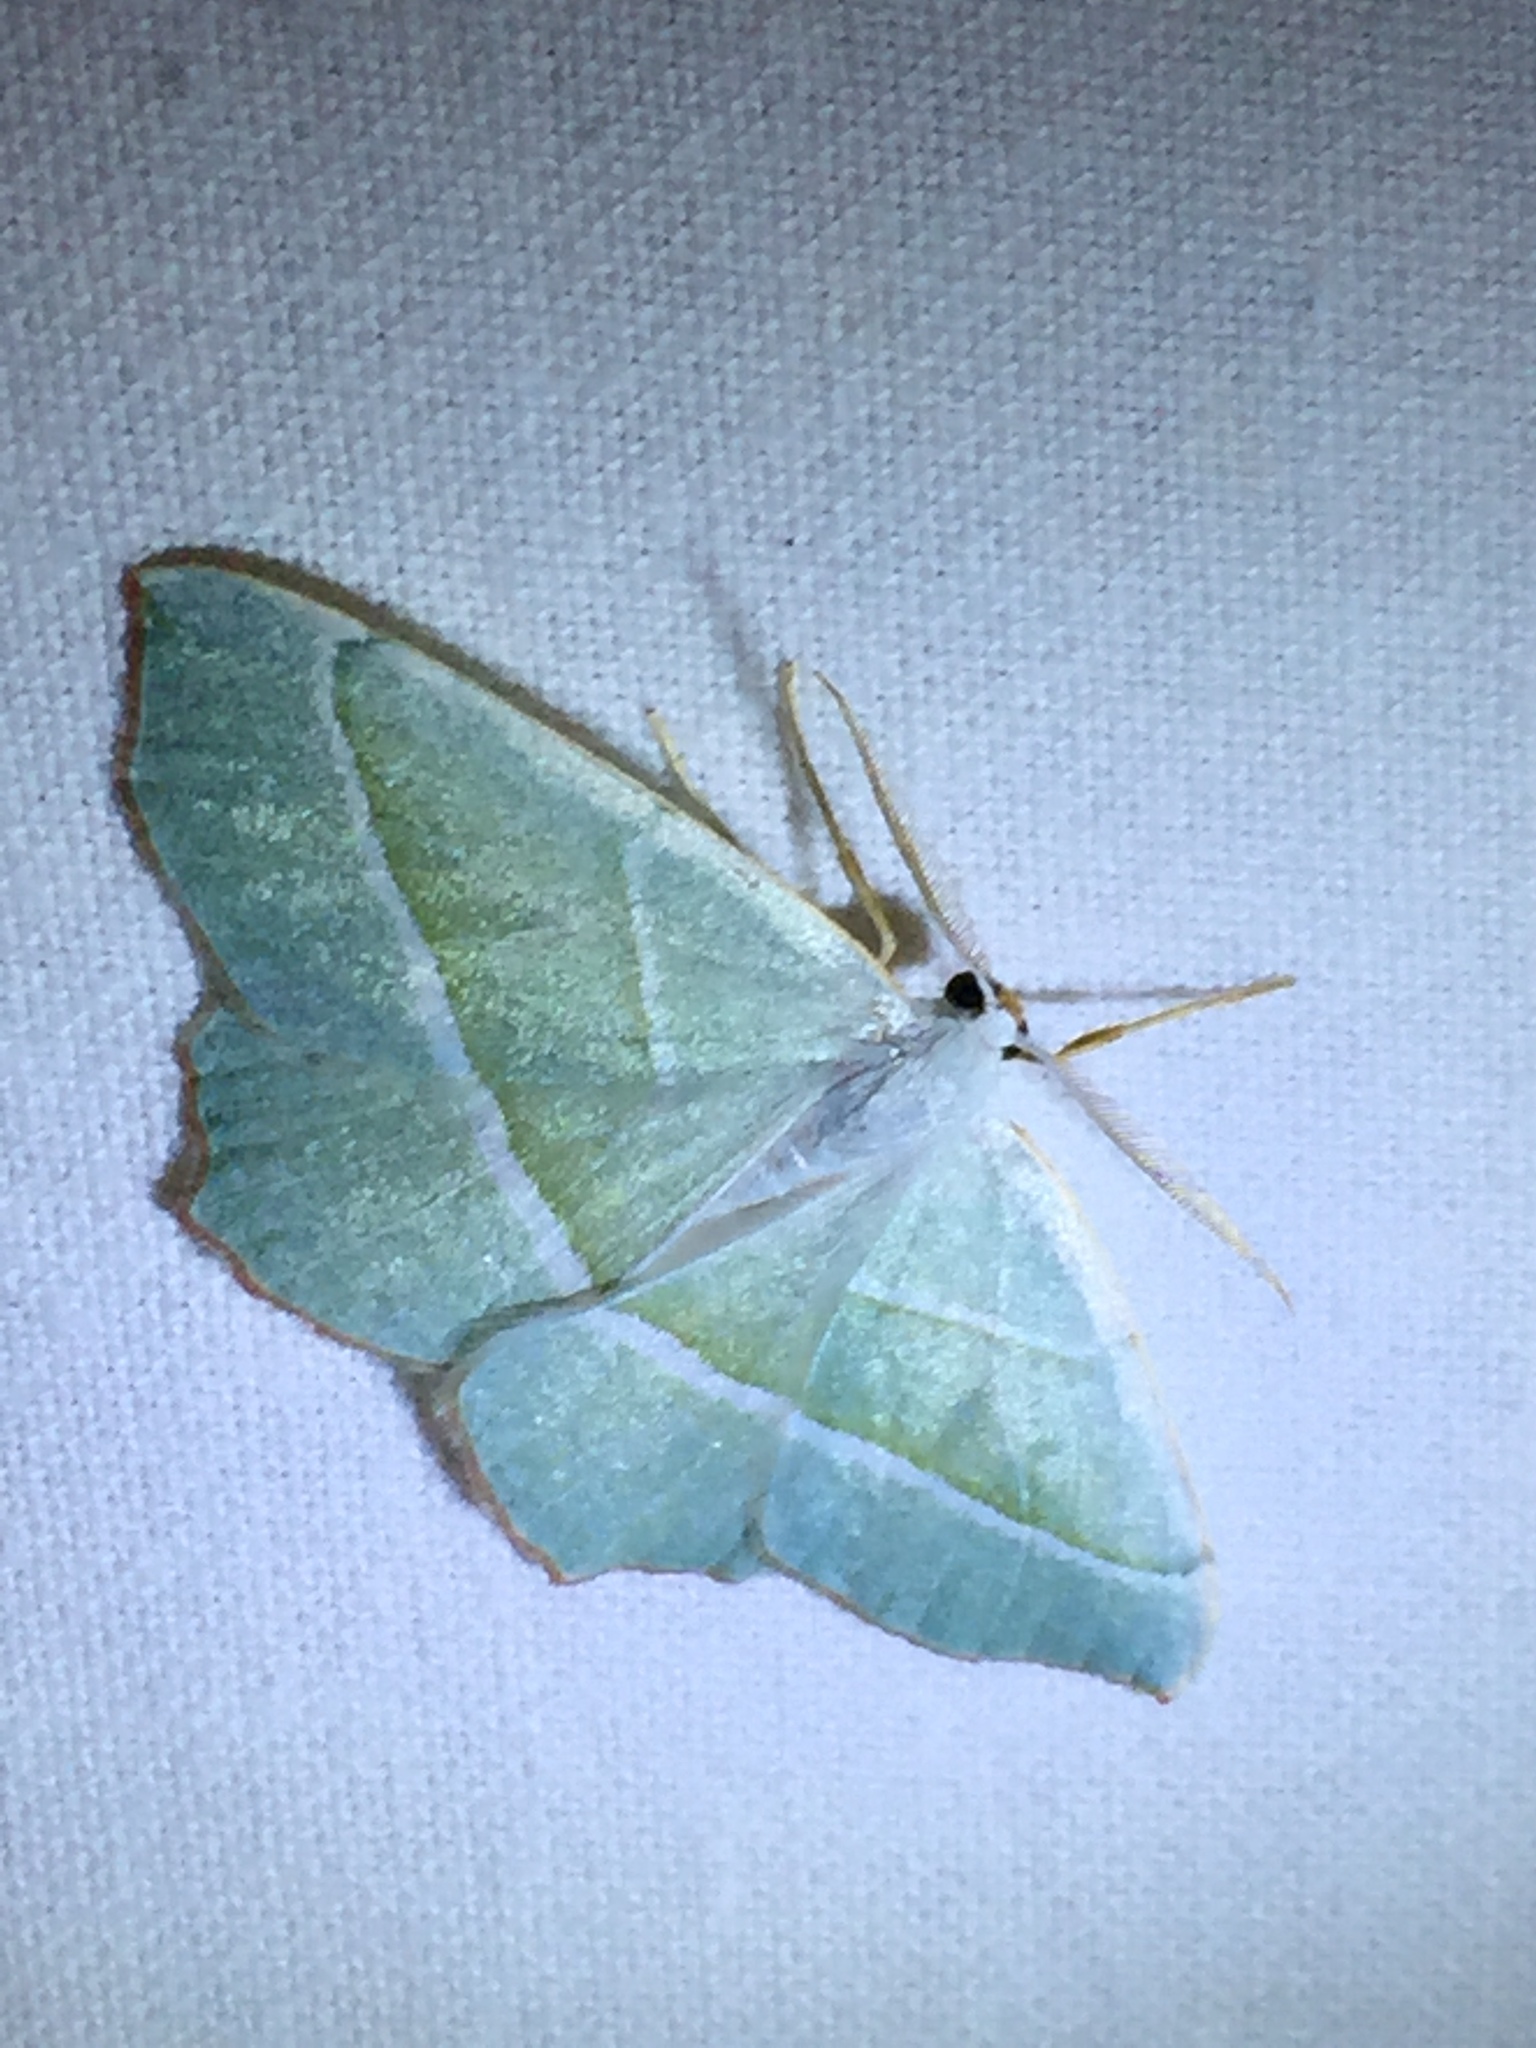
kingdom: Animalia
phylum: Arthropoda
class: Insecta
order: Lepidoptera
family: Geometridae
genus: Campaea
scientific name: Campaea margaritaria
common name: Light emerald
